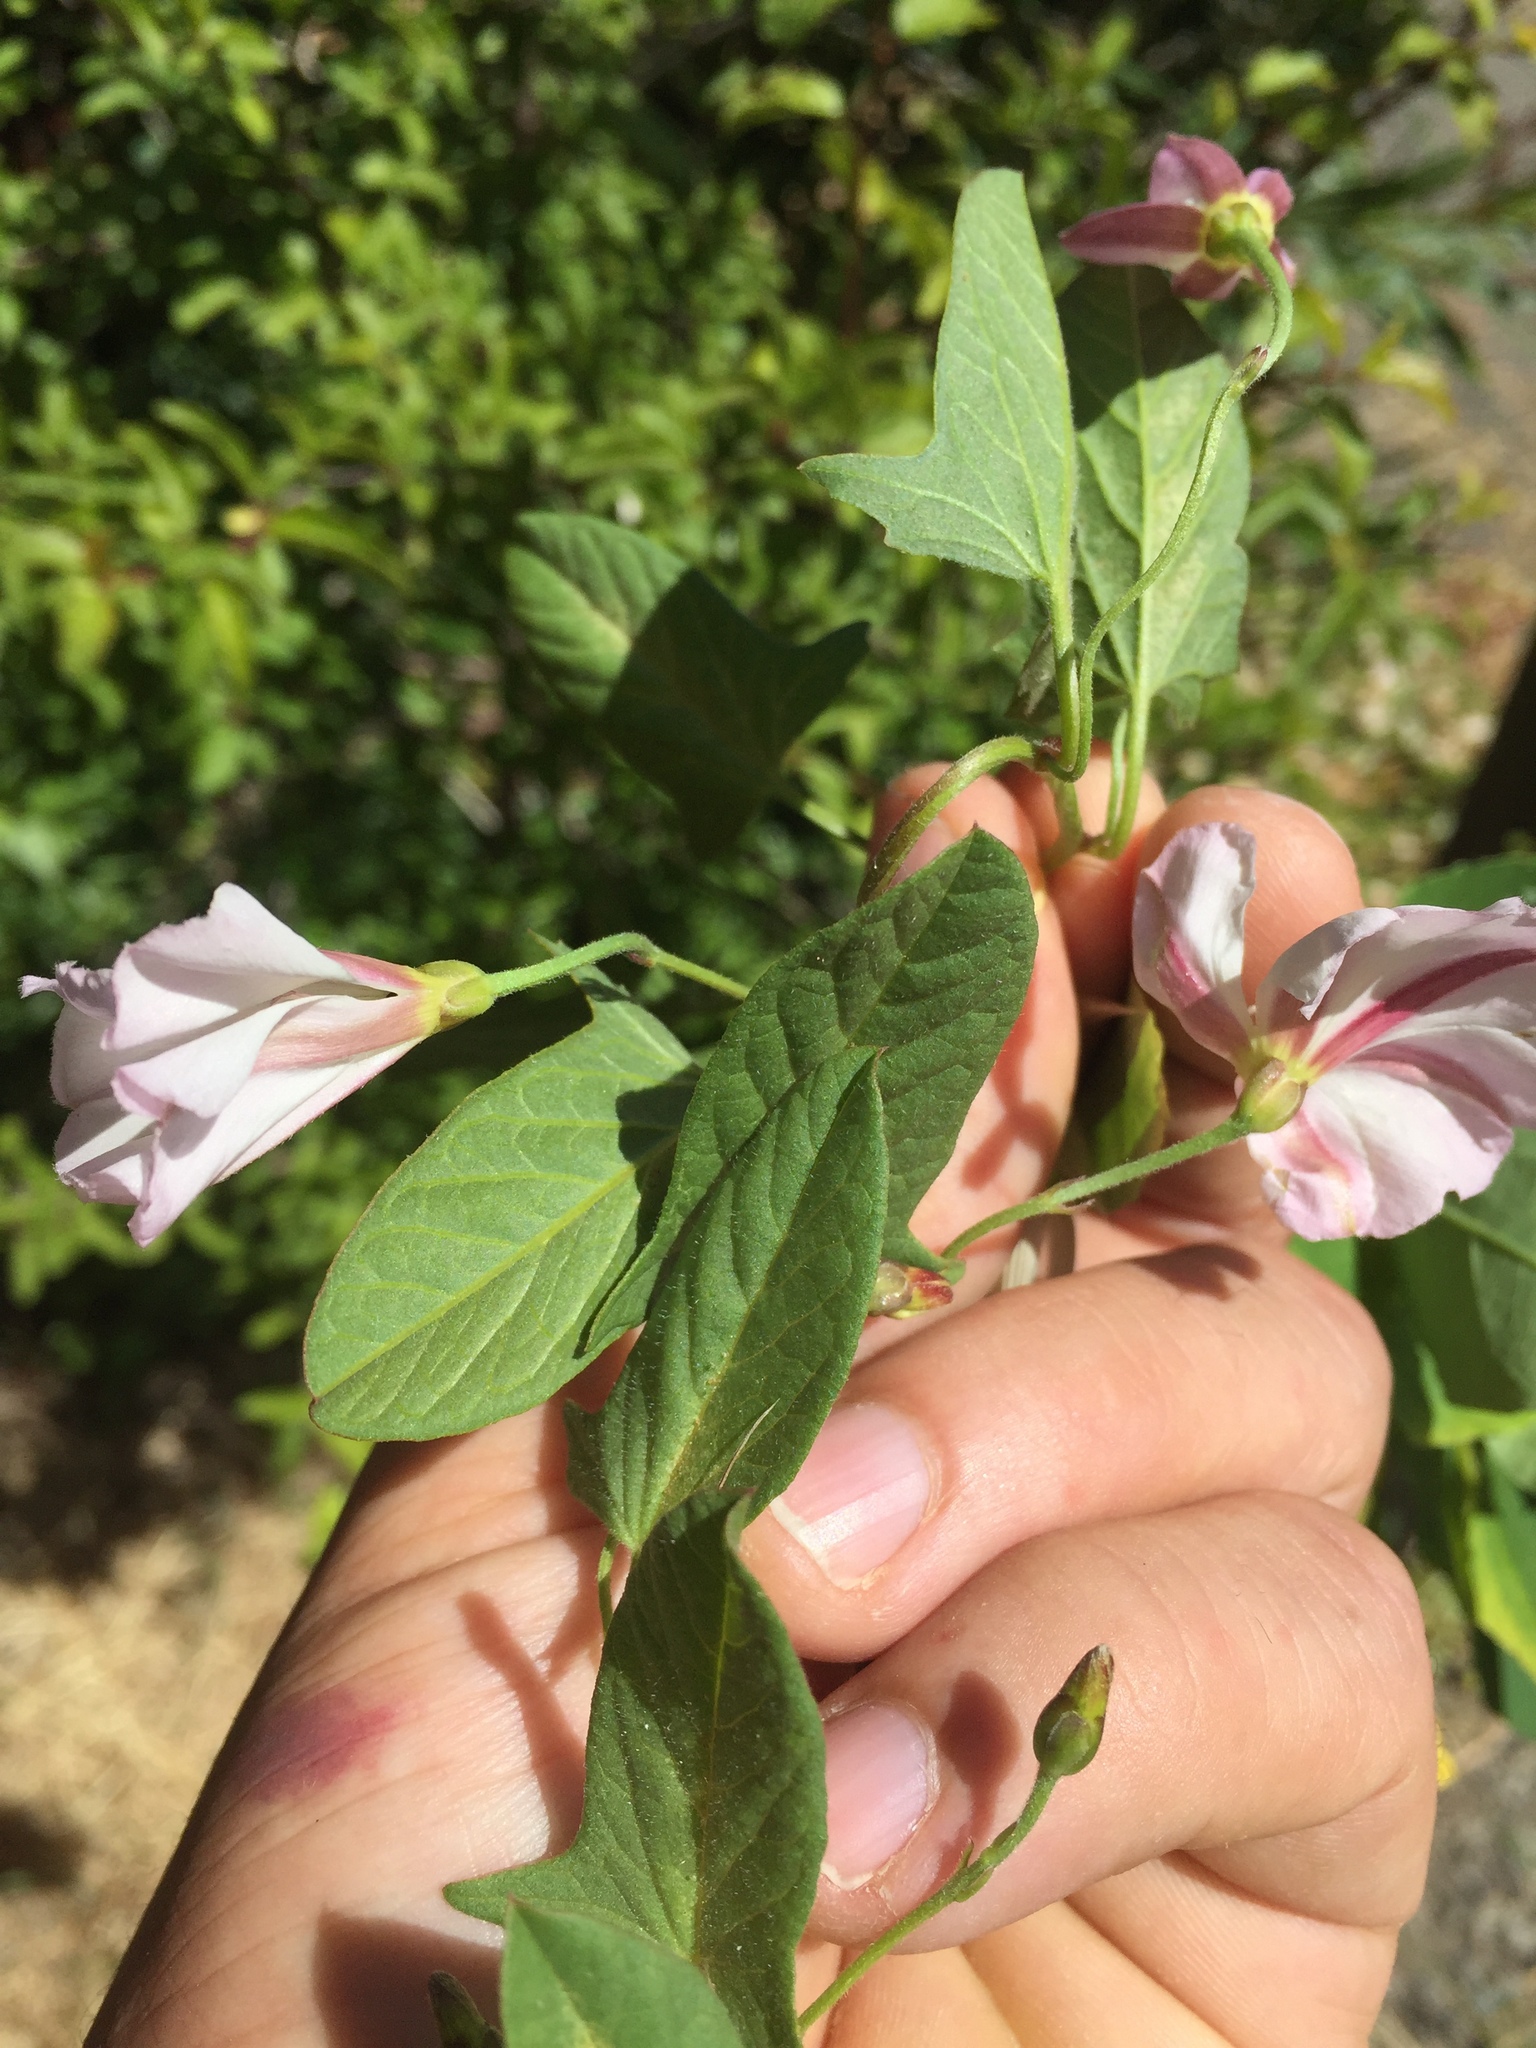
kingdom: Plantae
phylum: Tracheophyta
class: Magnoliopsida
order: Solanales
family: Convolvulaceae
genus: Convolvulus
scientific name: Convolvulus arvensis
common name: Field bindweed
